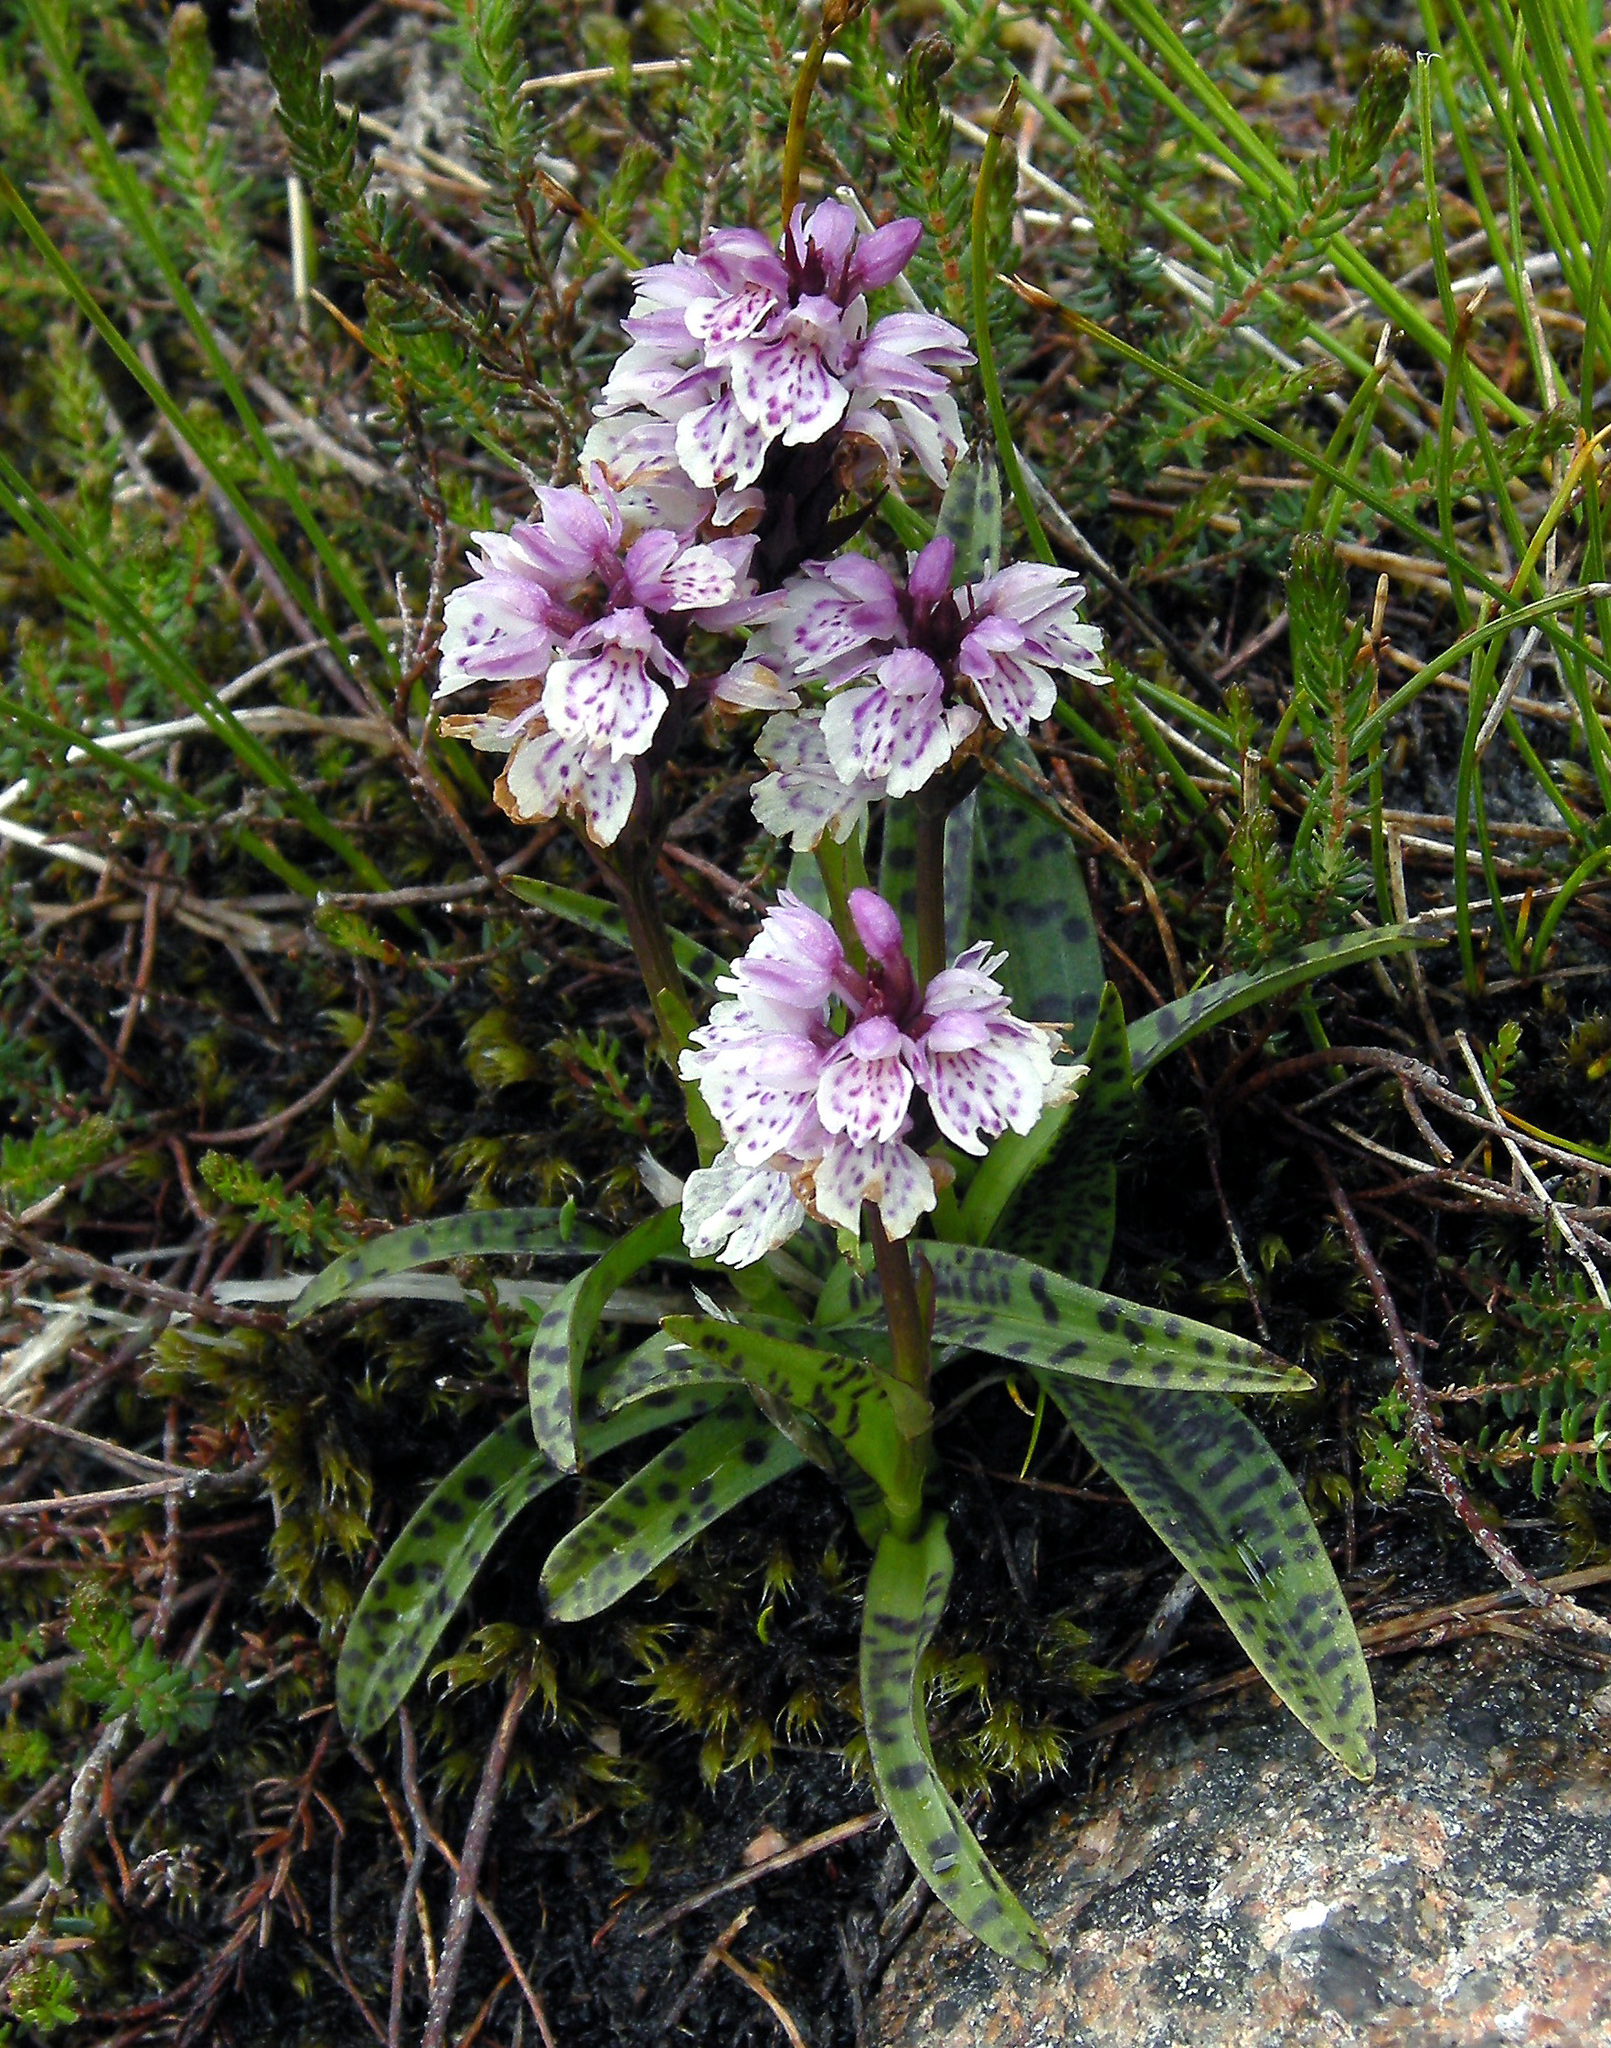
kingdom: Plantae
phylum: Tracheophyta
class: Liliopsida
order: Asparagales
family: Orchidaceae
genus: Dactylorhiza
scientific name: Dactylorhiza maculata
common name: Heath spotted-orchid
